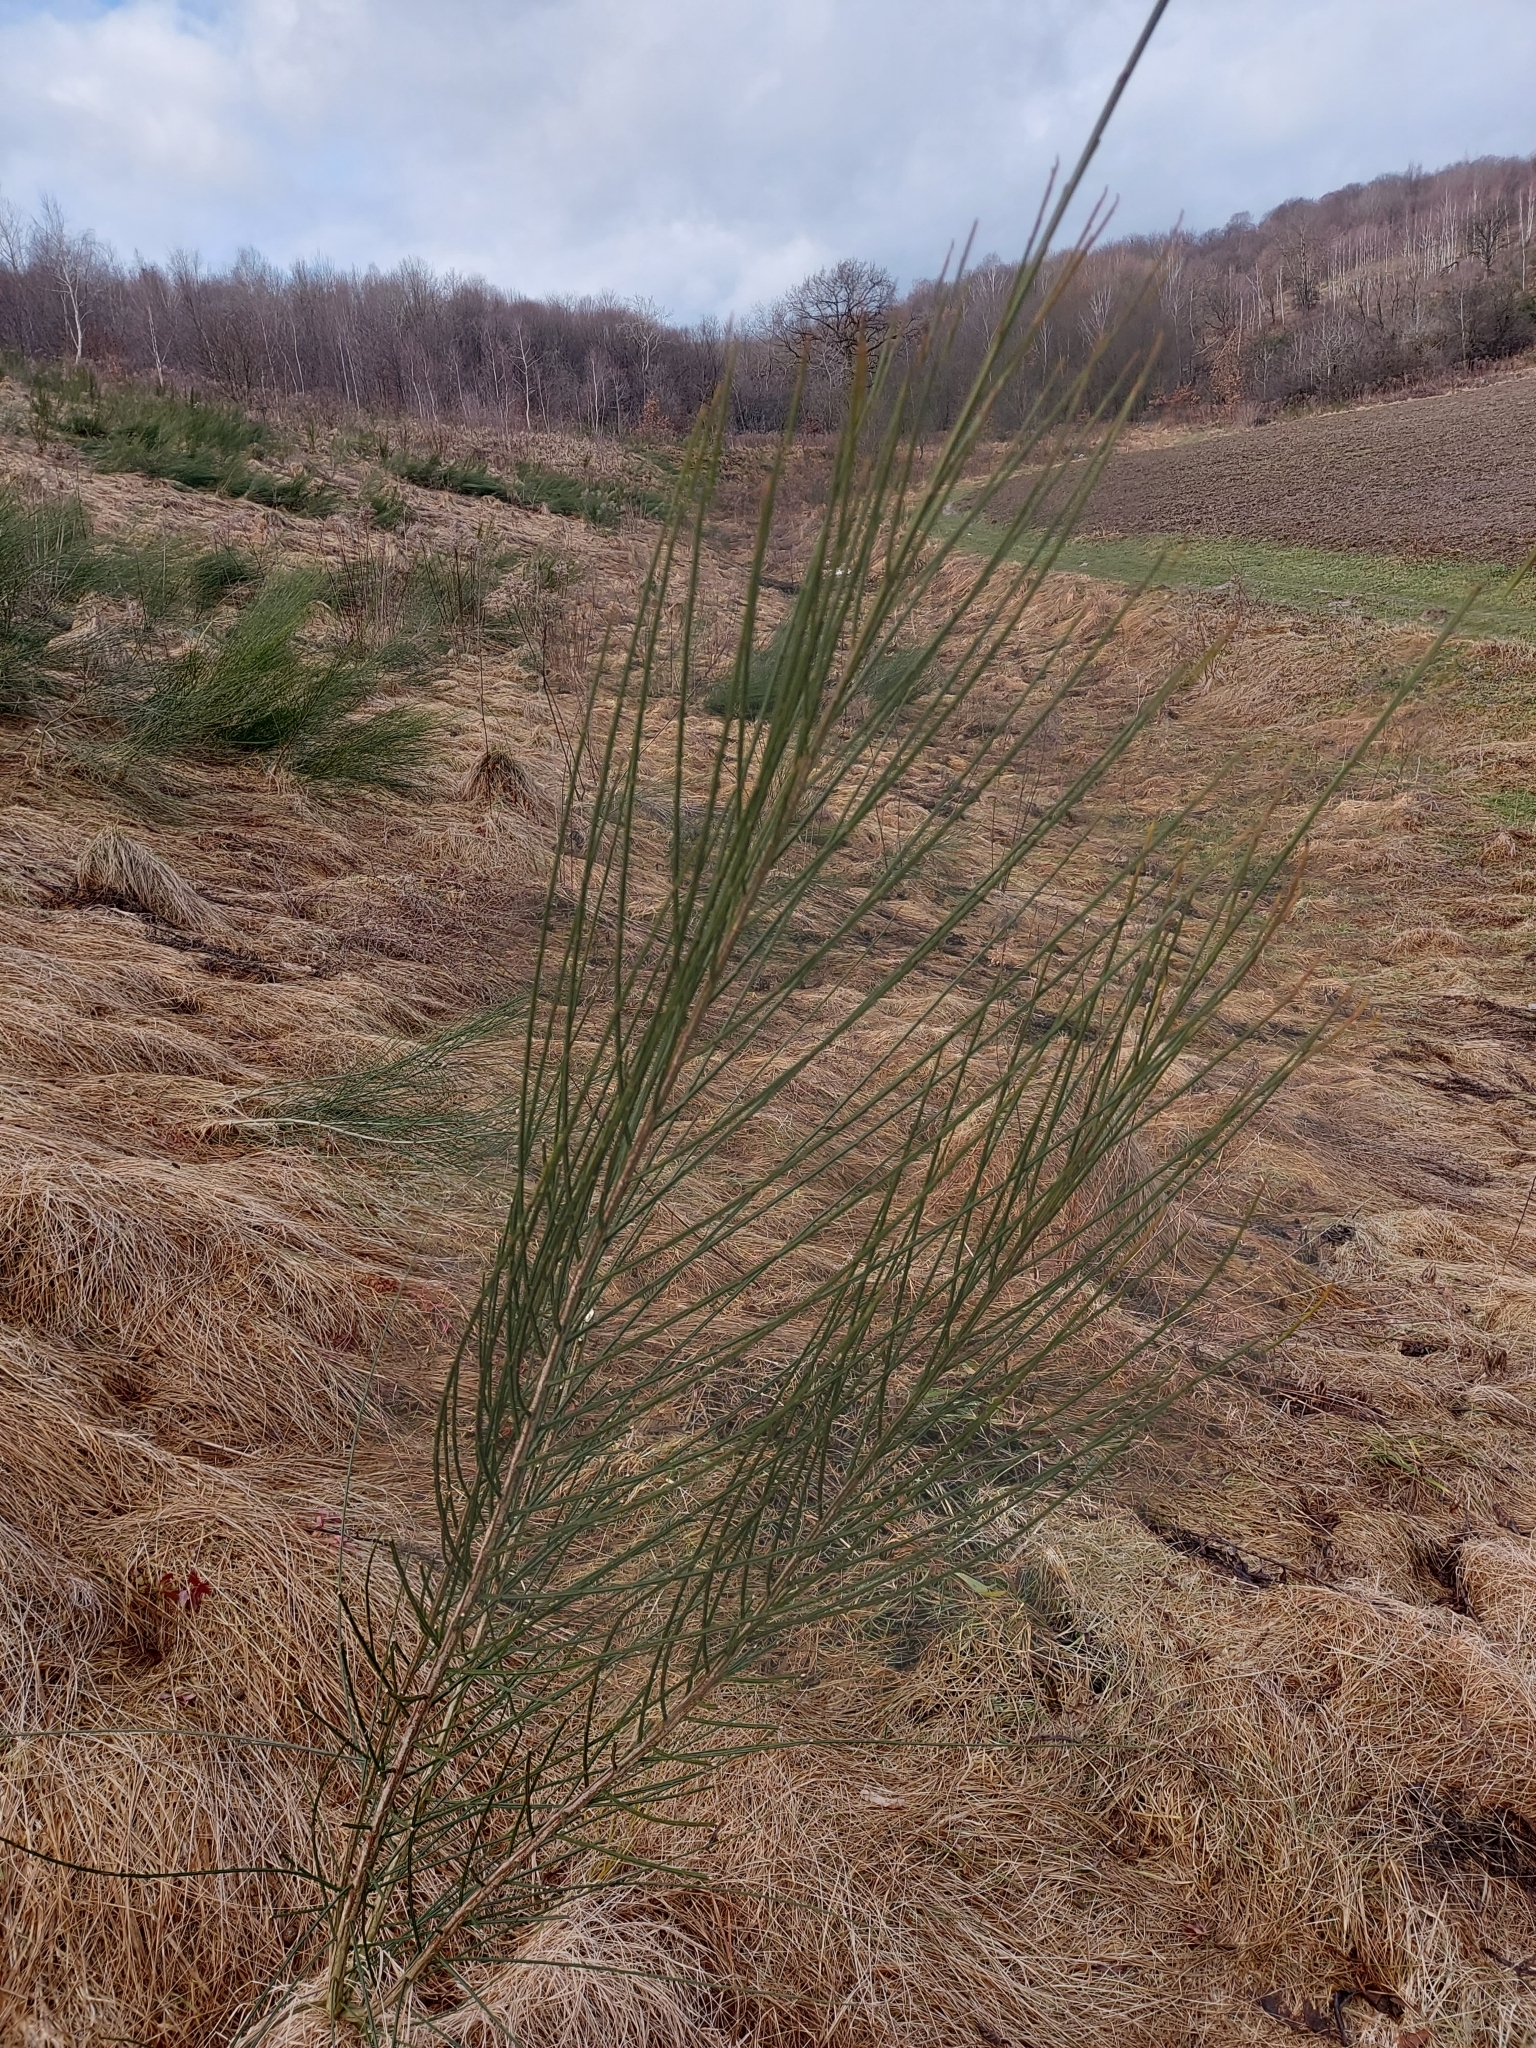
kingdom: Plantae
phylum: Tracheophyta
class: Magnoliopsida
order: Fabales
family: Fabaceae
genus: Cytisus
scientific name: Cytisus scoparius
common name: Scotch broom
